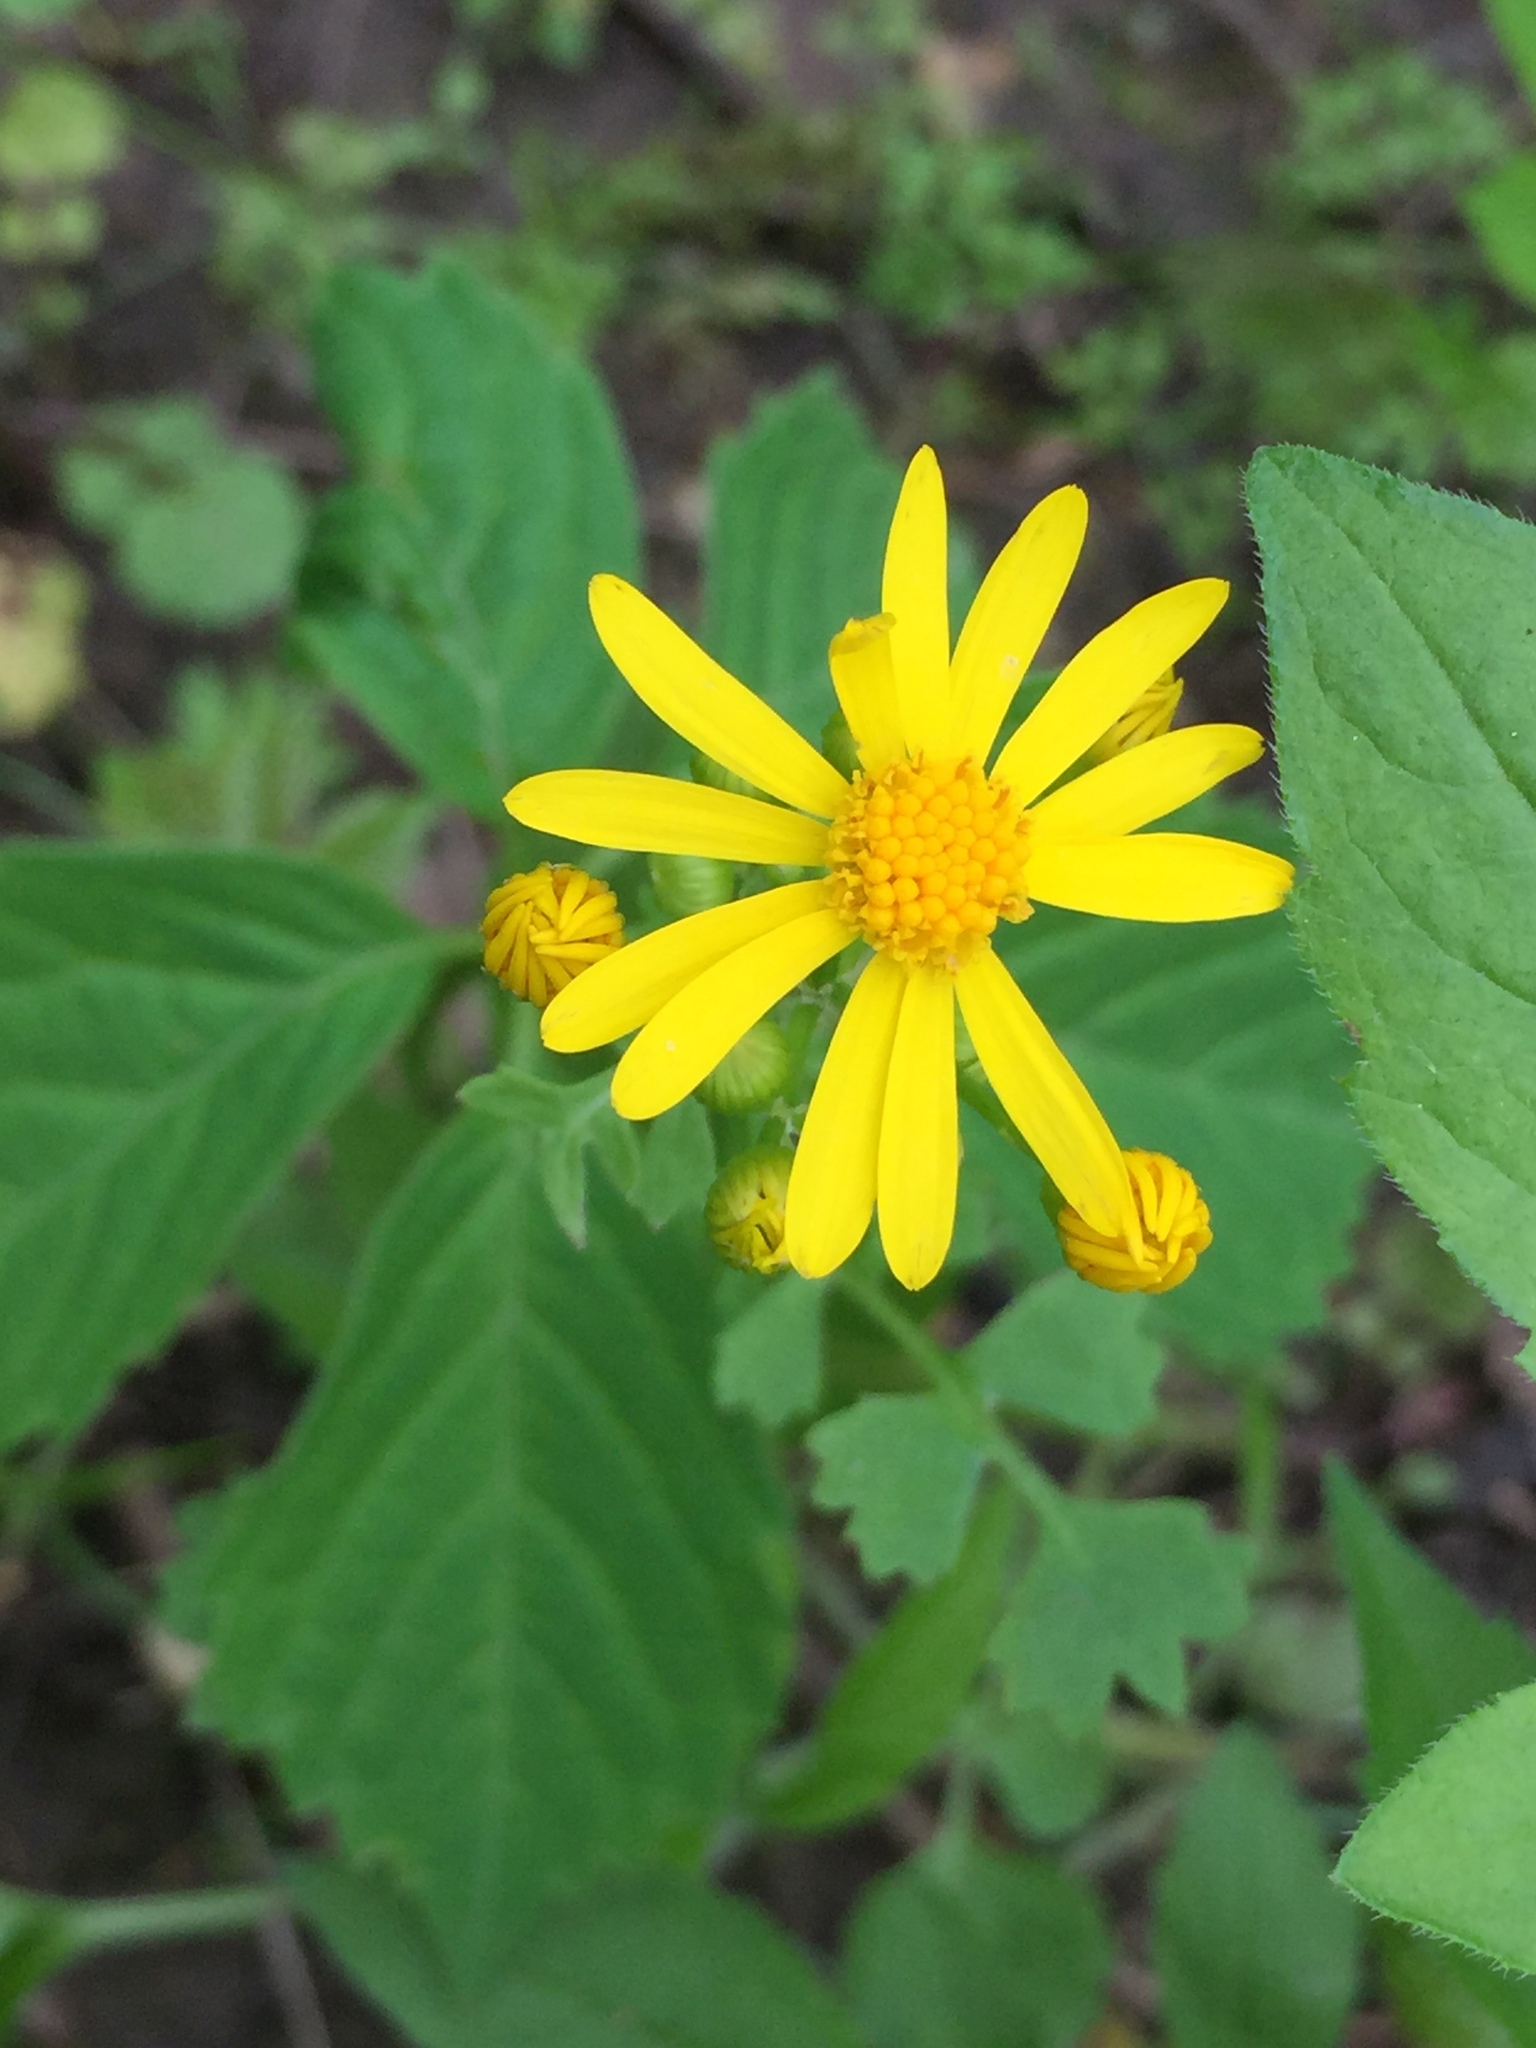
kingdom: Plantae
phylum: Tracheophyta
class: Magnoliopsida
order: Asterales
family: Asteraceae
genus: Packera
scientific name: Packera glabella
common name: Butterweed
